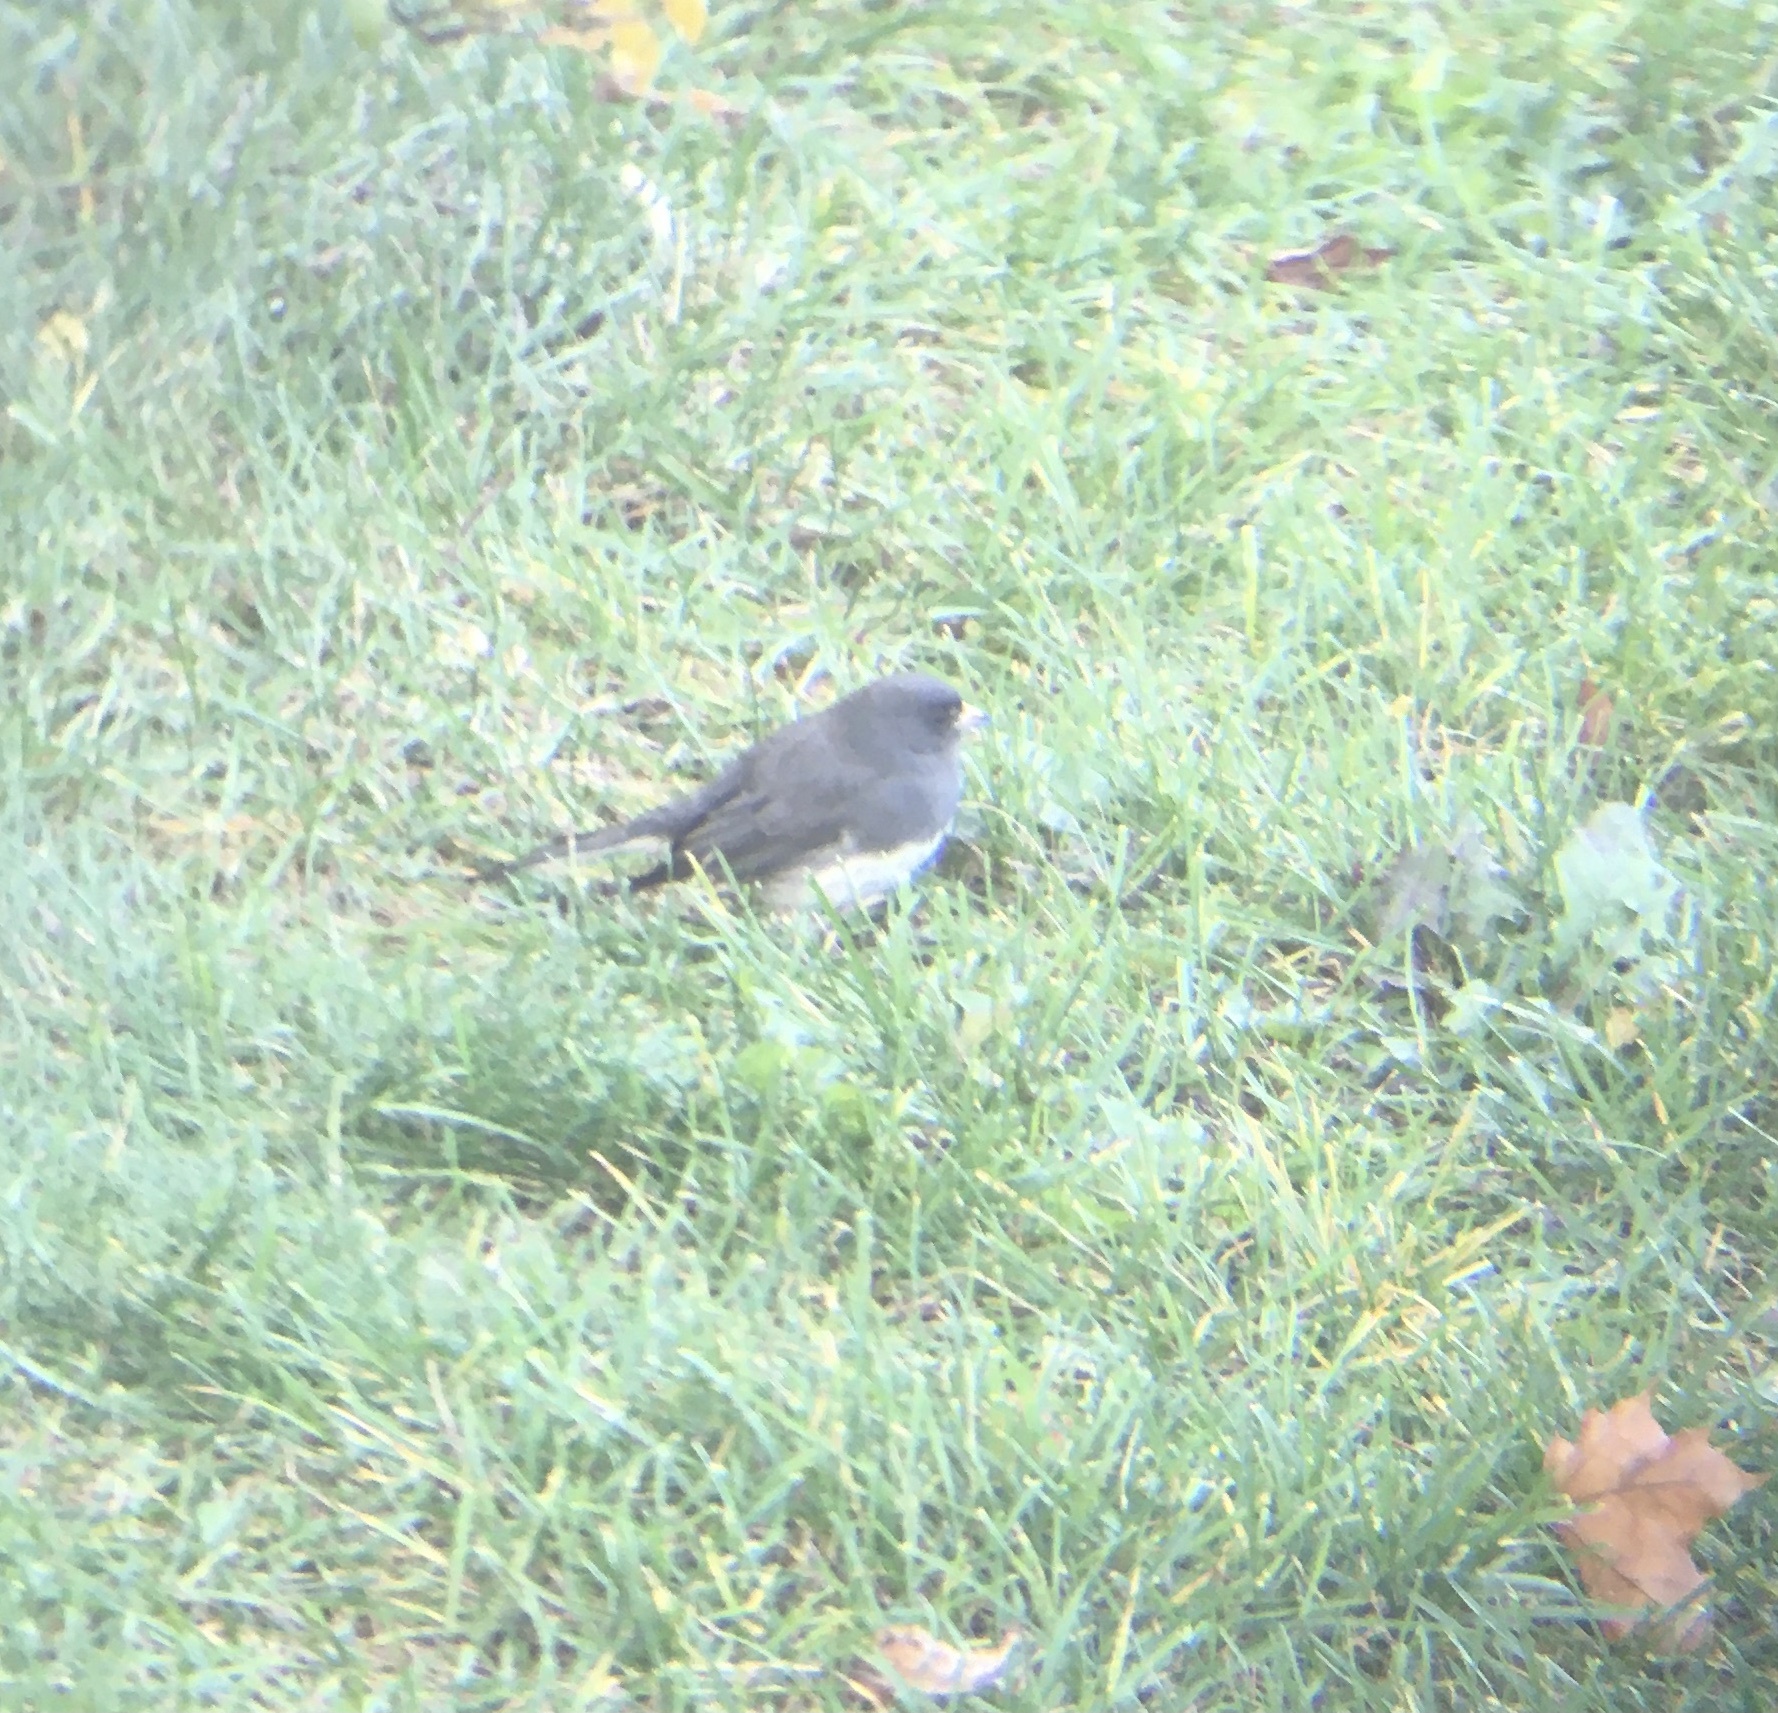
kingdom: Animalia
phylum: Chordata
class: Aves
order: Passeriformes
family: Passerellidae
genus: Junco
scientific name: Junco hyemalis
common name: Dark-eyed junco
